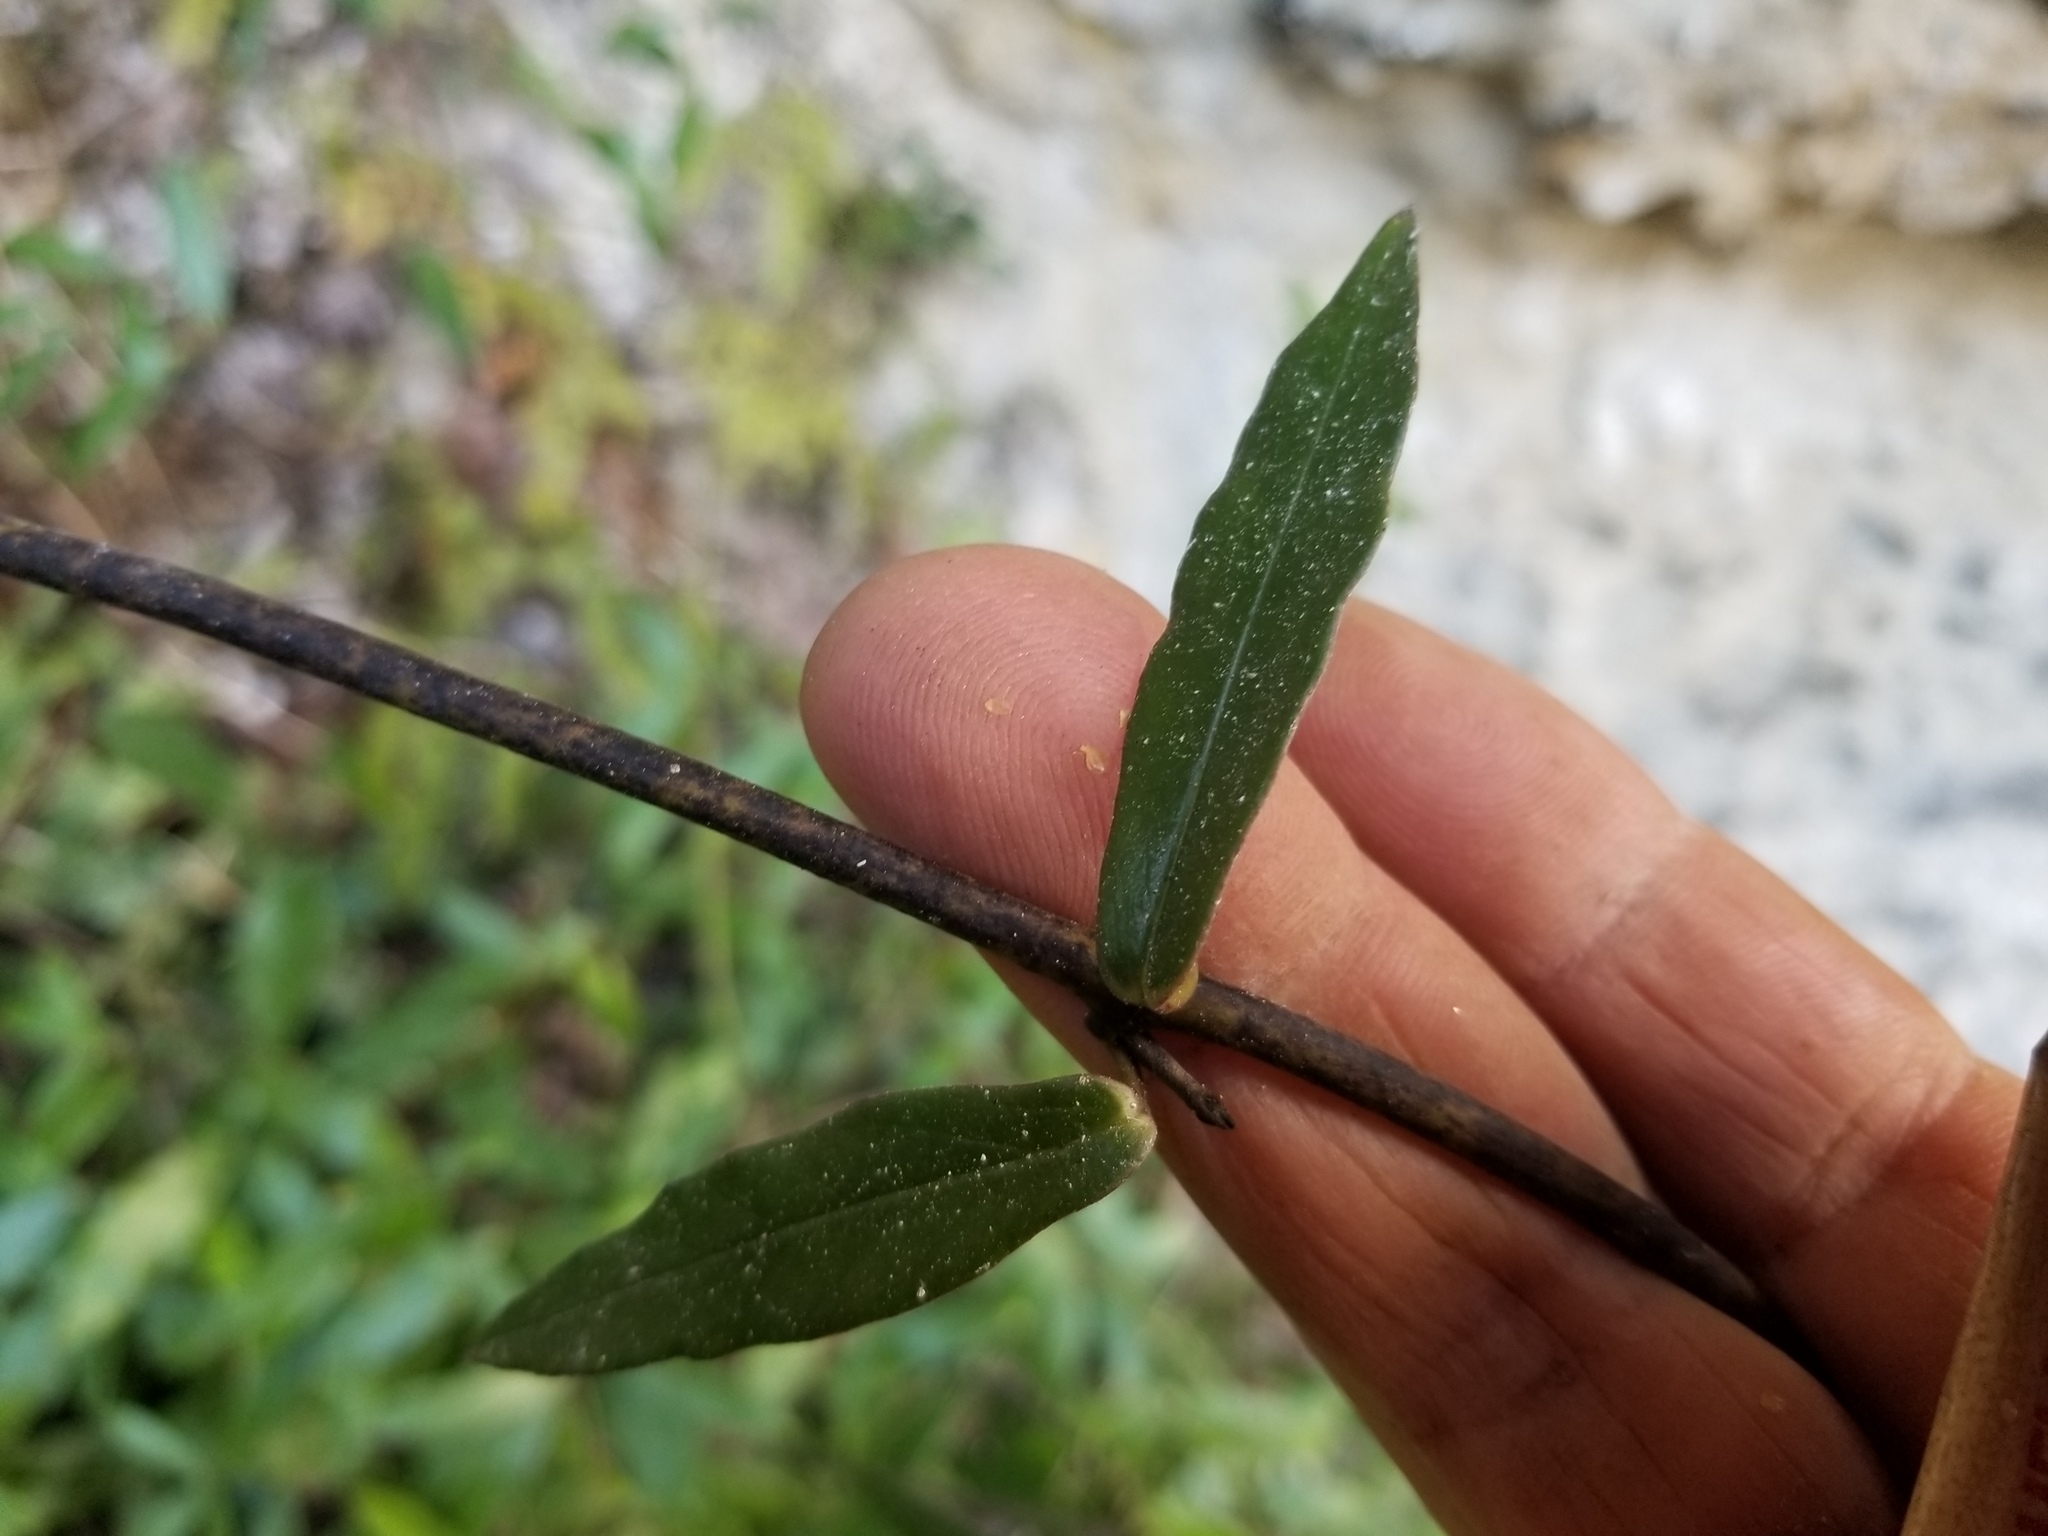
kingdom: Plantae
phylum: Tracheophyta
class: Magnoliopsida
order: Gentianales
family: Apocynaceae
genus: Parsonsia
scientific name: Parsonsia heterophylla
